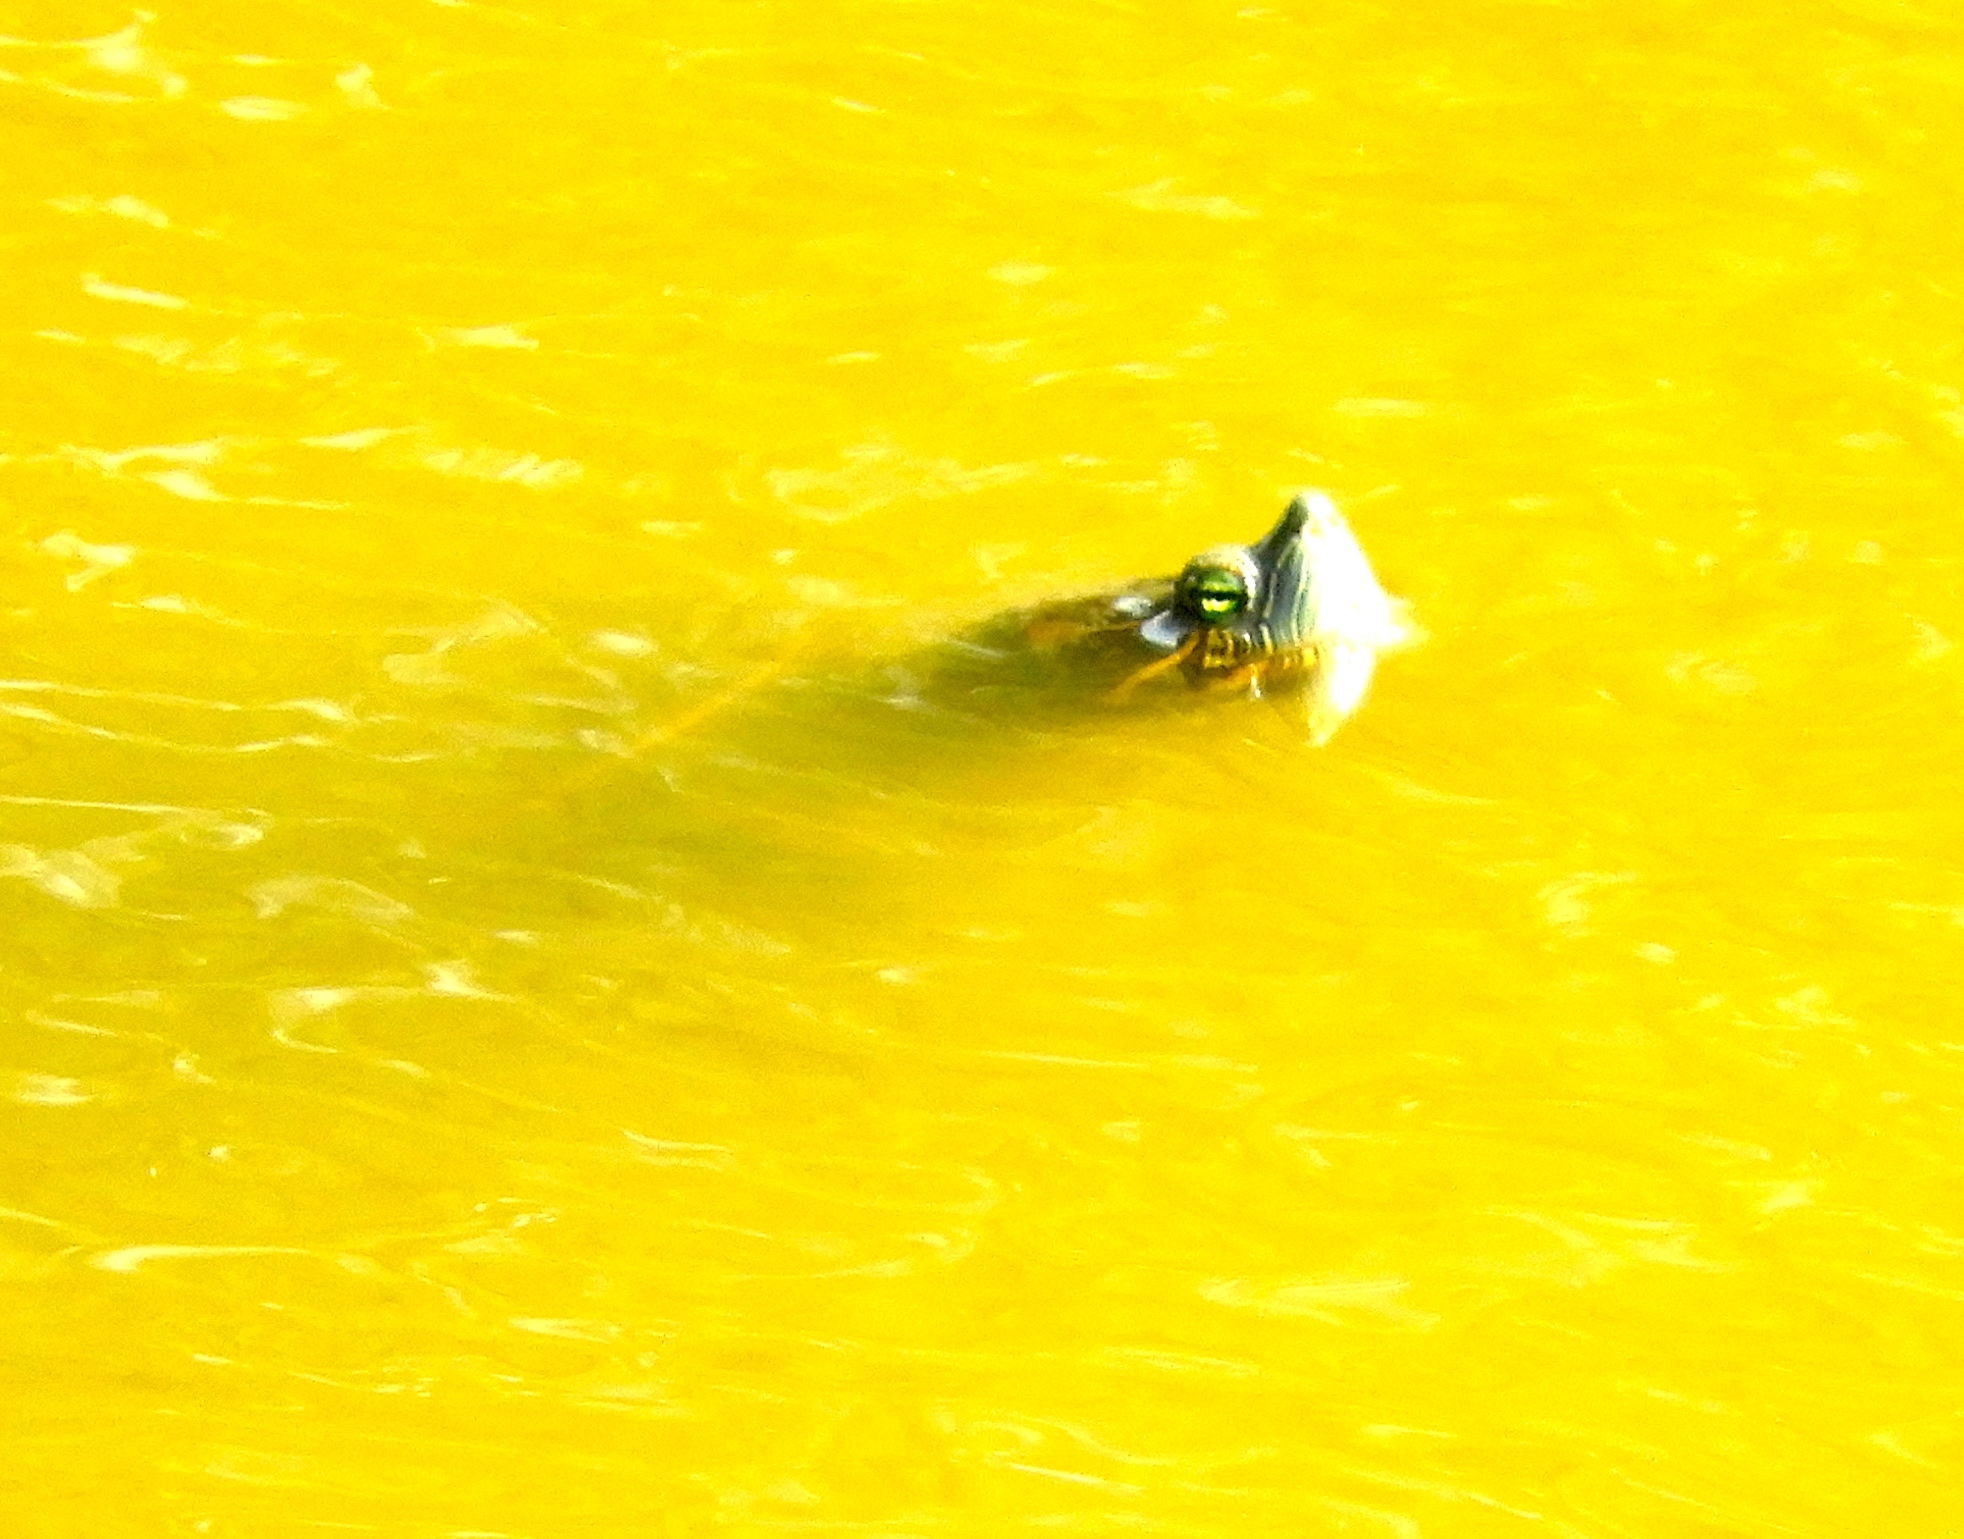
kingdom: Animalia
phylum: Chordata
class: Testudines
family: Emydidae
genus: Trachemys
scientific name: Trachemys ornata
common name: Ornate slider
